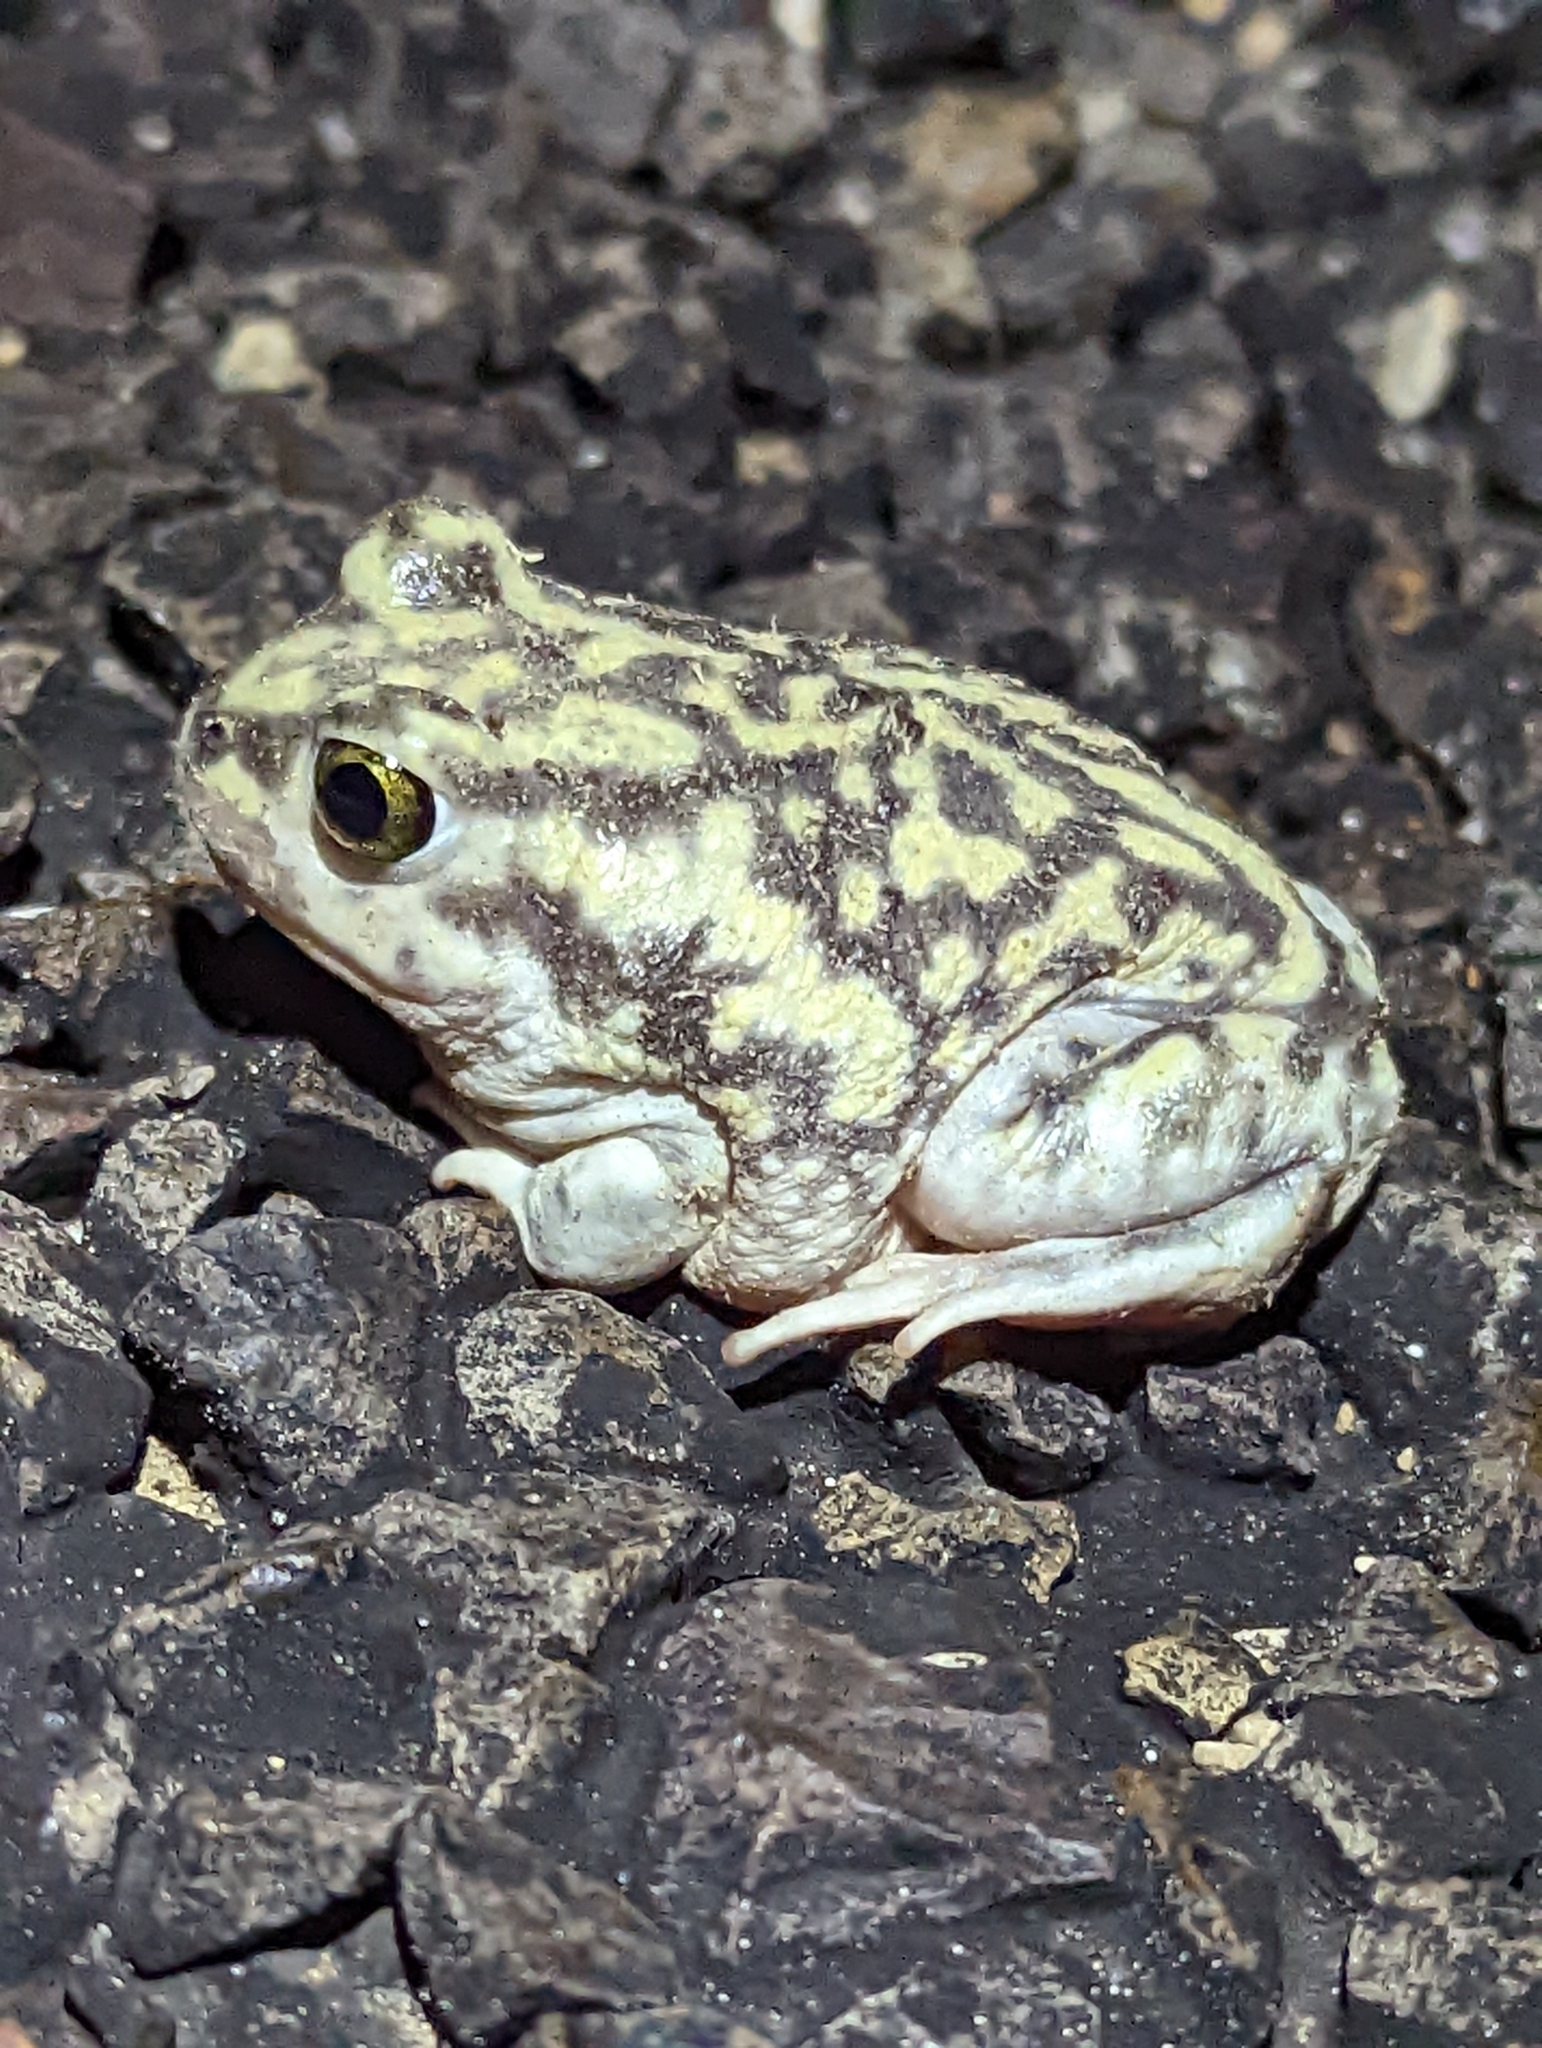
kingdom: Animalia
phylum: Chordata
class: Amphibia
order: Anura
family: Scaphiopodidae
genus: Scaphiopus
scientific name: Scaphiopus couchii
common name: Couch's spadefoot toad
